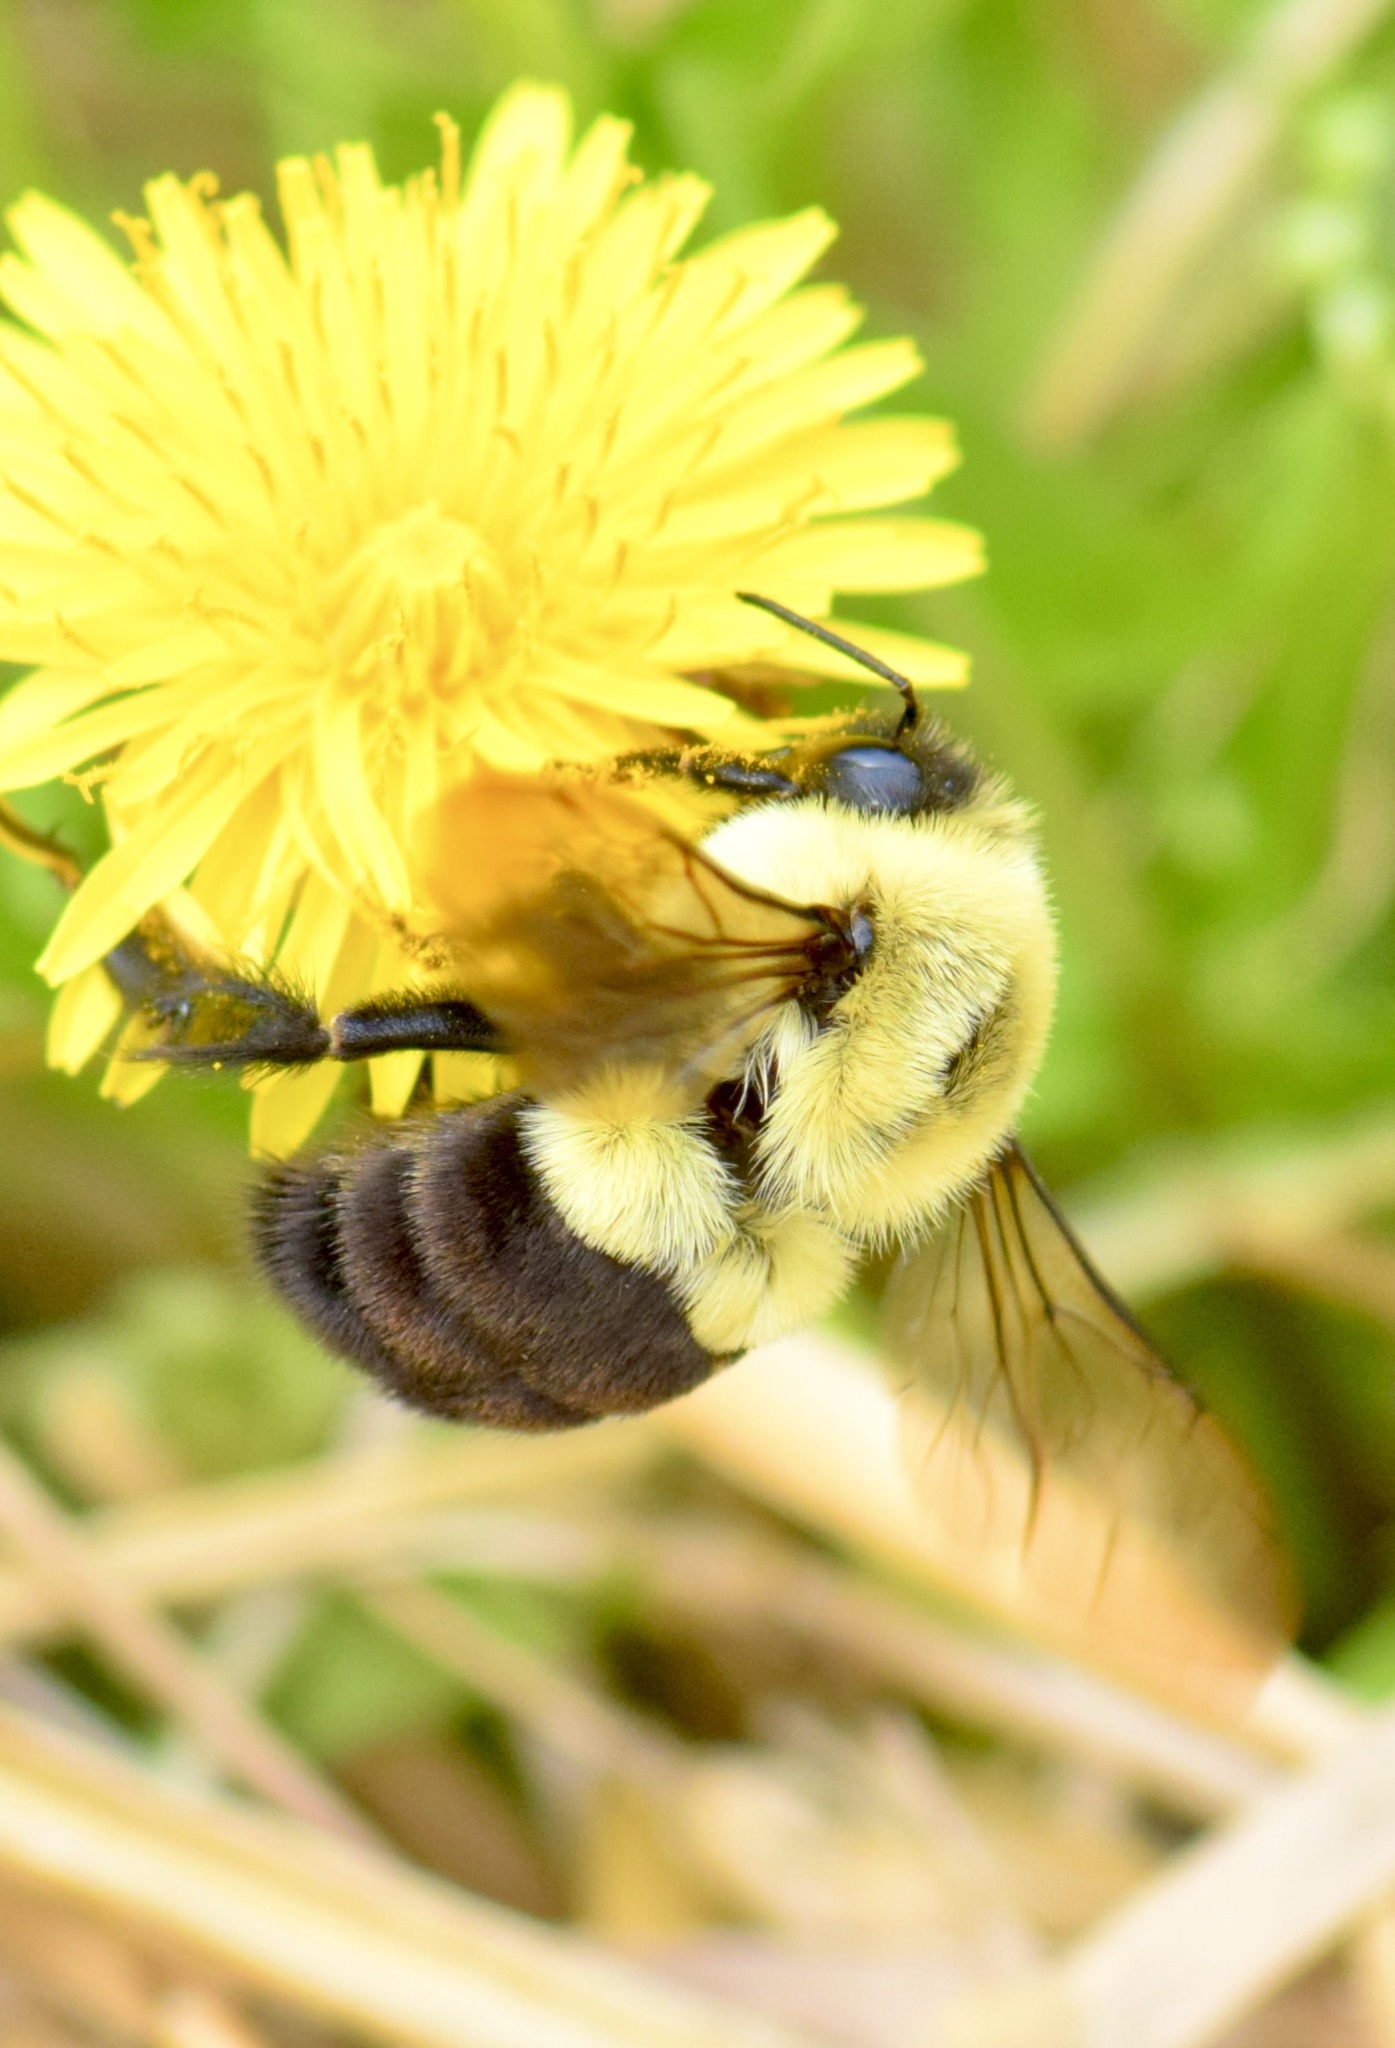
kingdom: Animalia
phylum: Arthropoda
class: Insecta
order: Hymenoptera
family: Apidae
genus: Bombus
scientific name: Bombus impatiens
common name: Common eastern bumble bee
